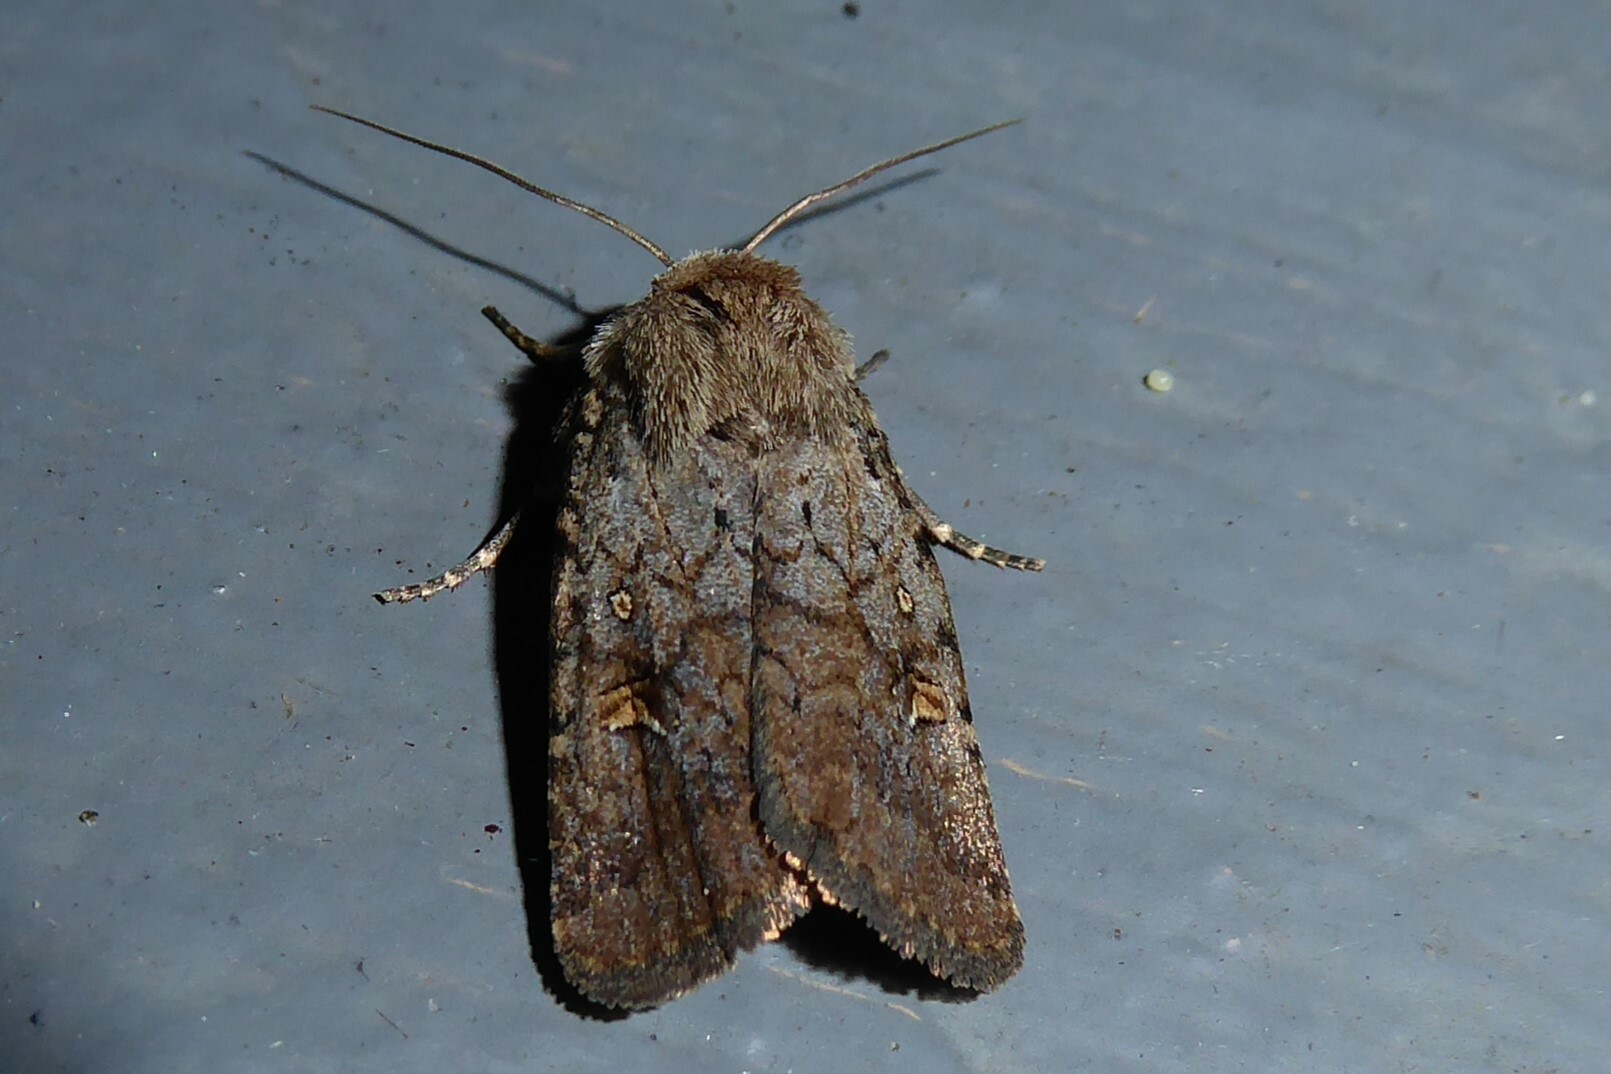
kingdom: Animalia
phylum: Arthropoda
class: Insecta
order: Lepidoptera
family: Noctuidae
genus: Proteuxoa
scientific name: Proteuxoa tetronycha
